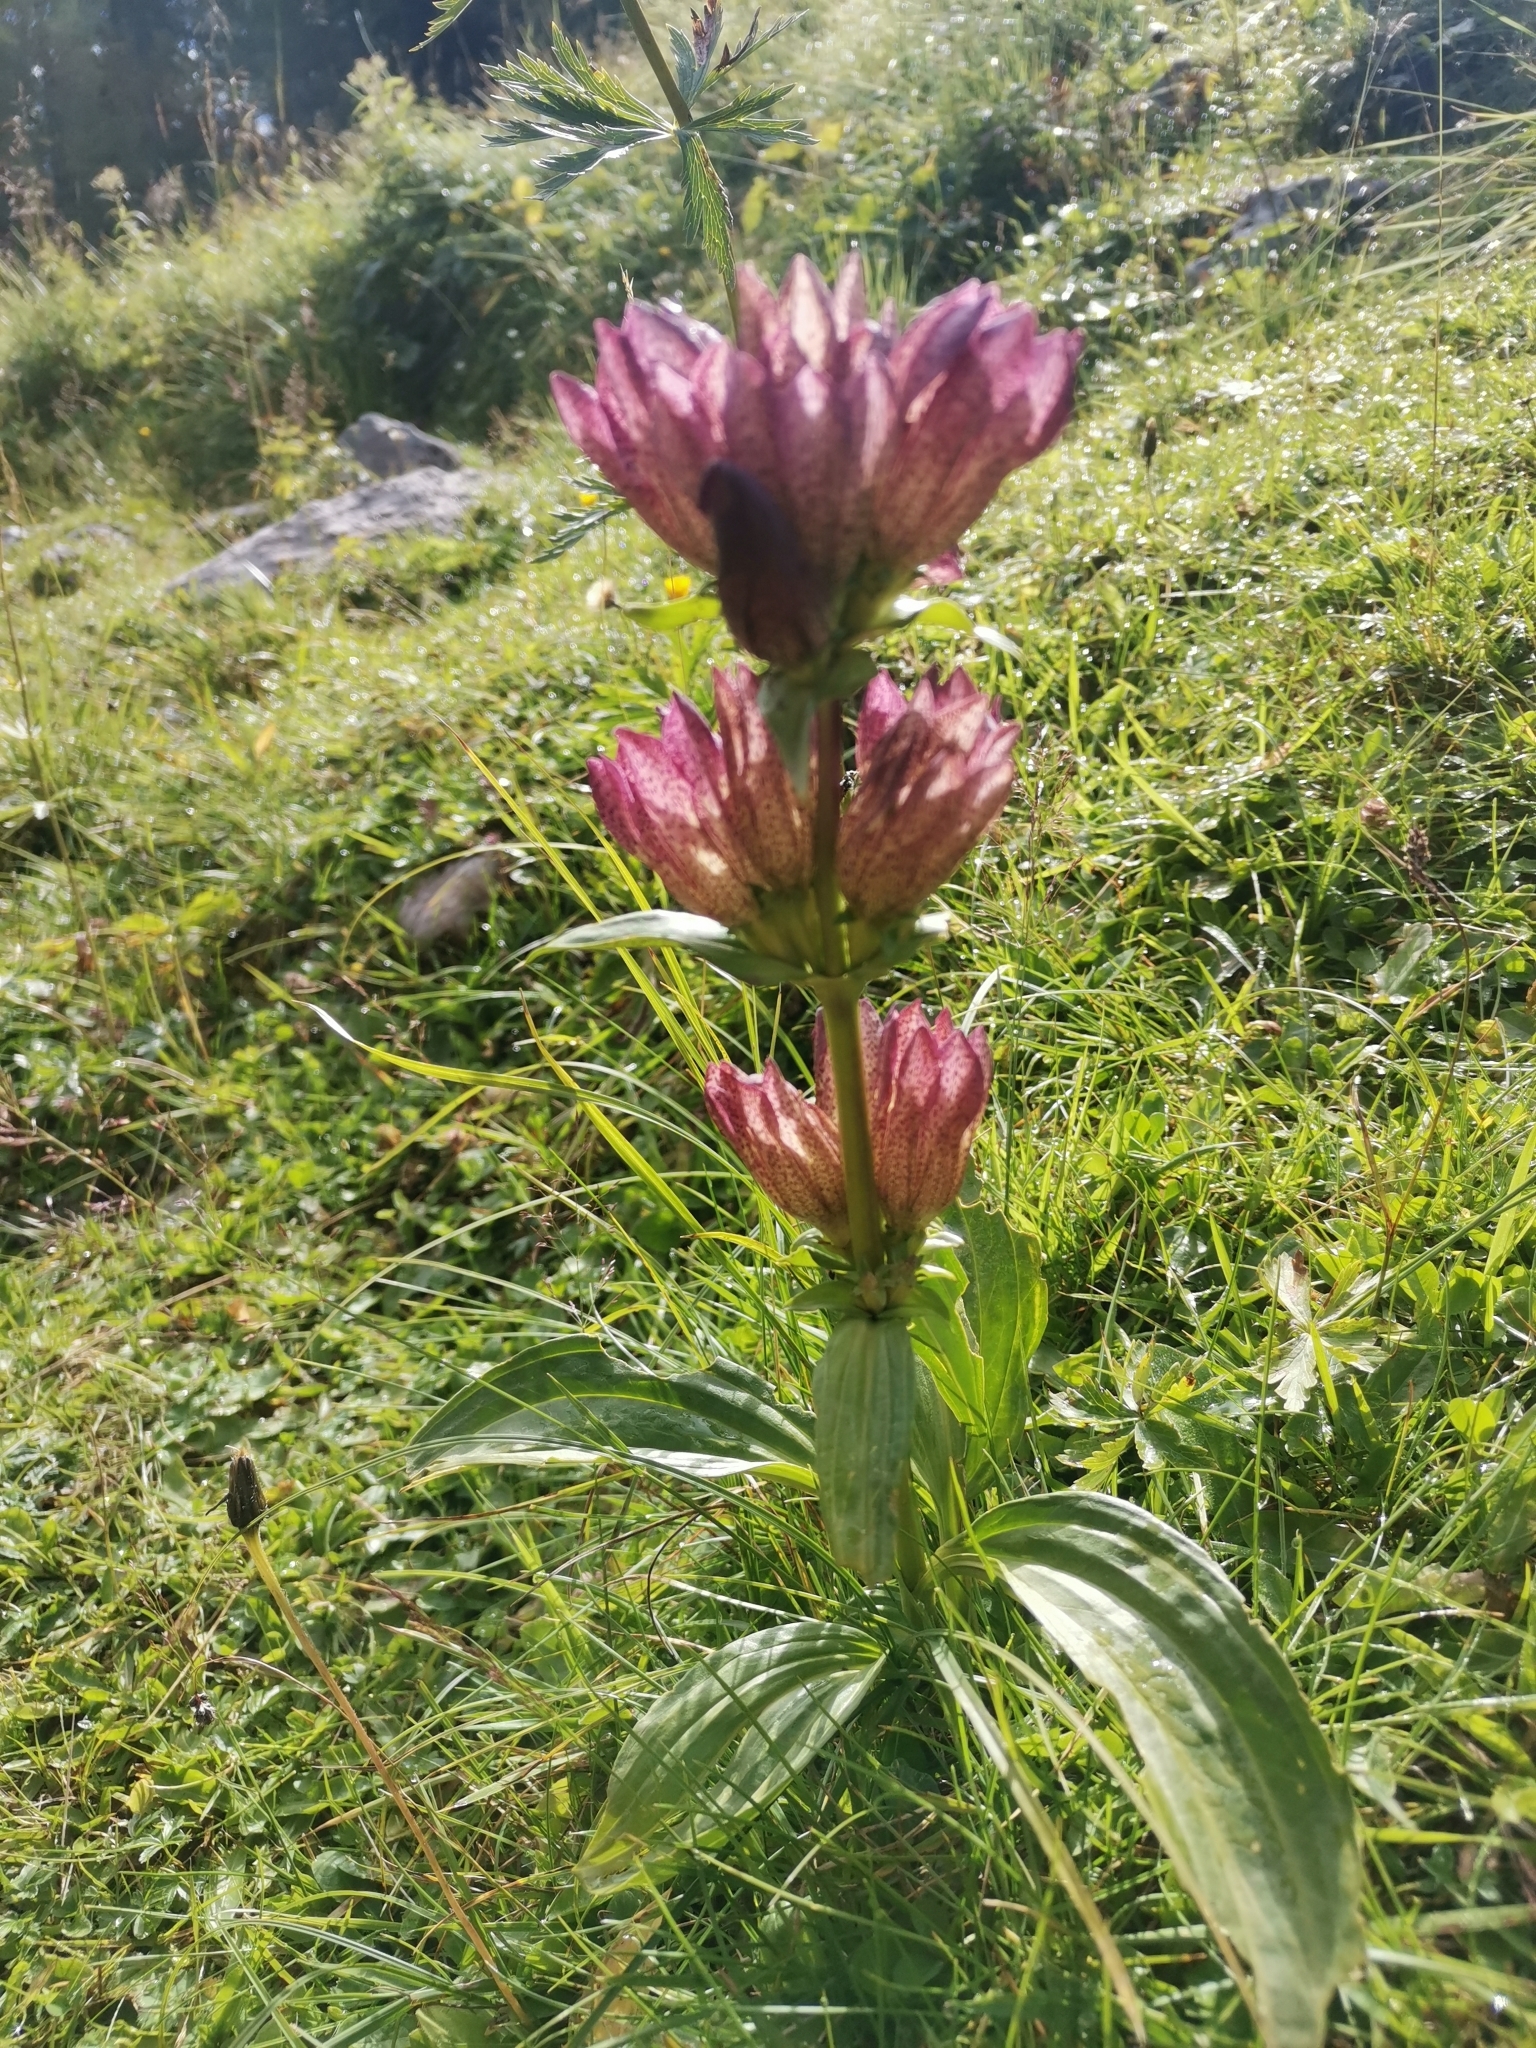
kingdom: Plantae
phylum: Tracheophyta
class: Magnoliopsida
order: Gentianales
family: Gentianaceae
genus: Gentiana
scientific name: Gentiana pannonica
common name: Hungarian gentian
